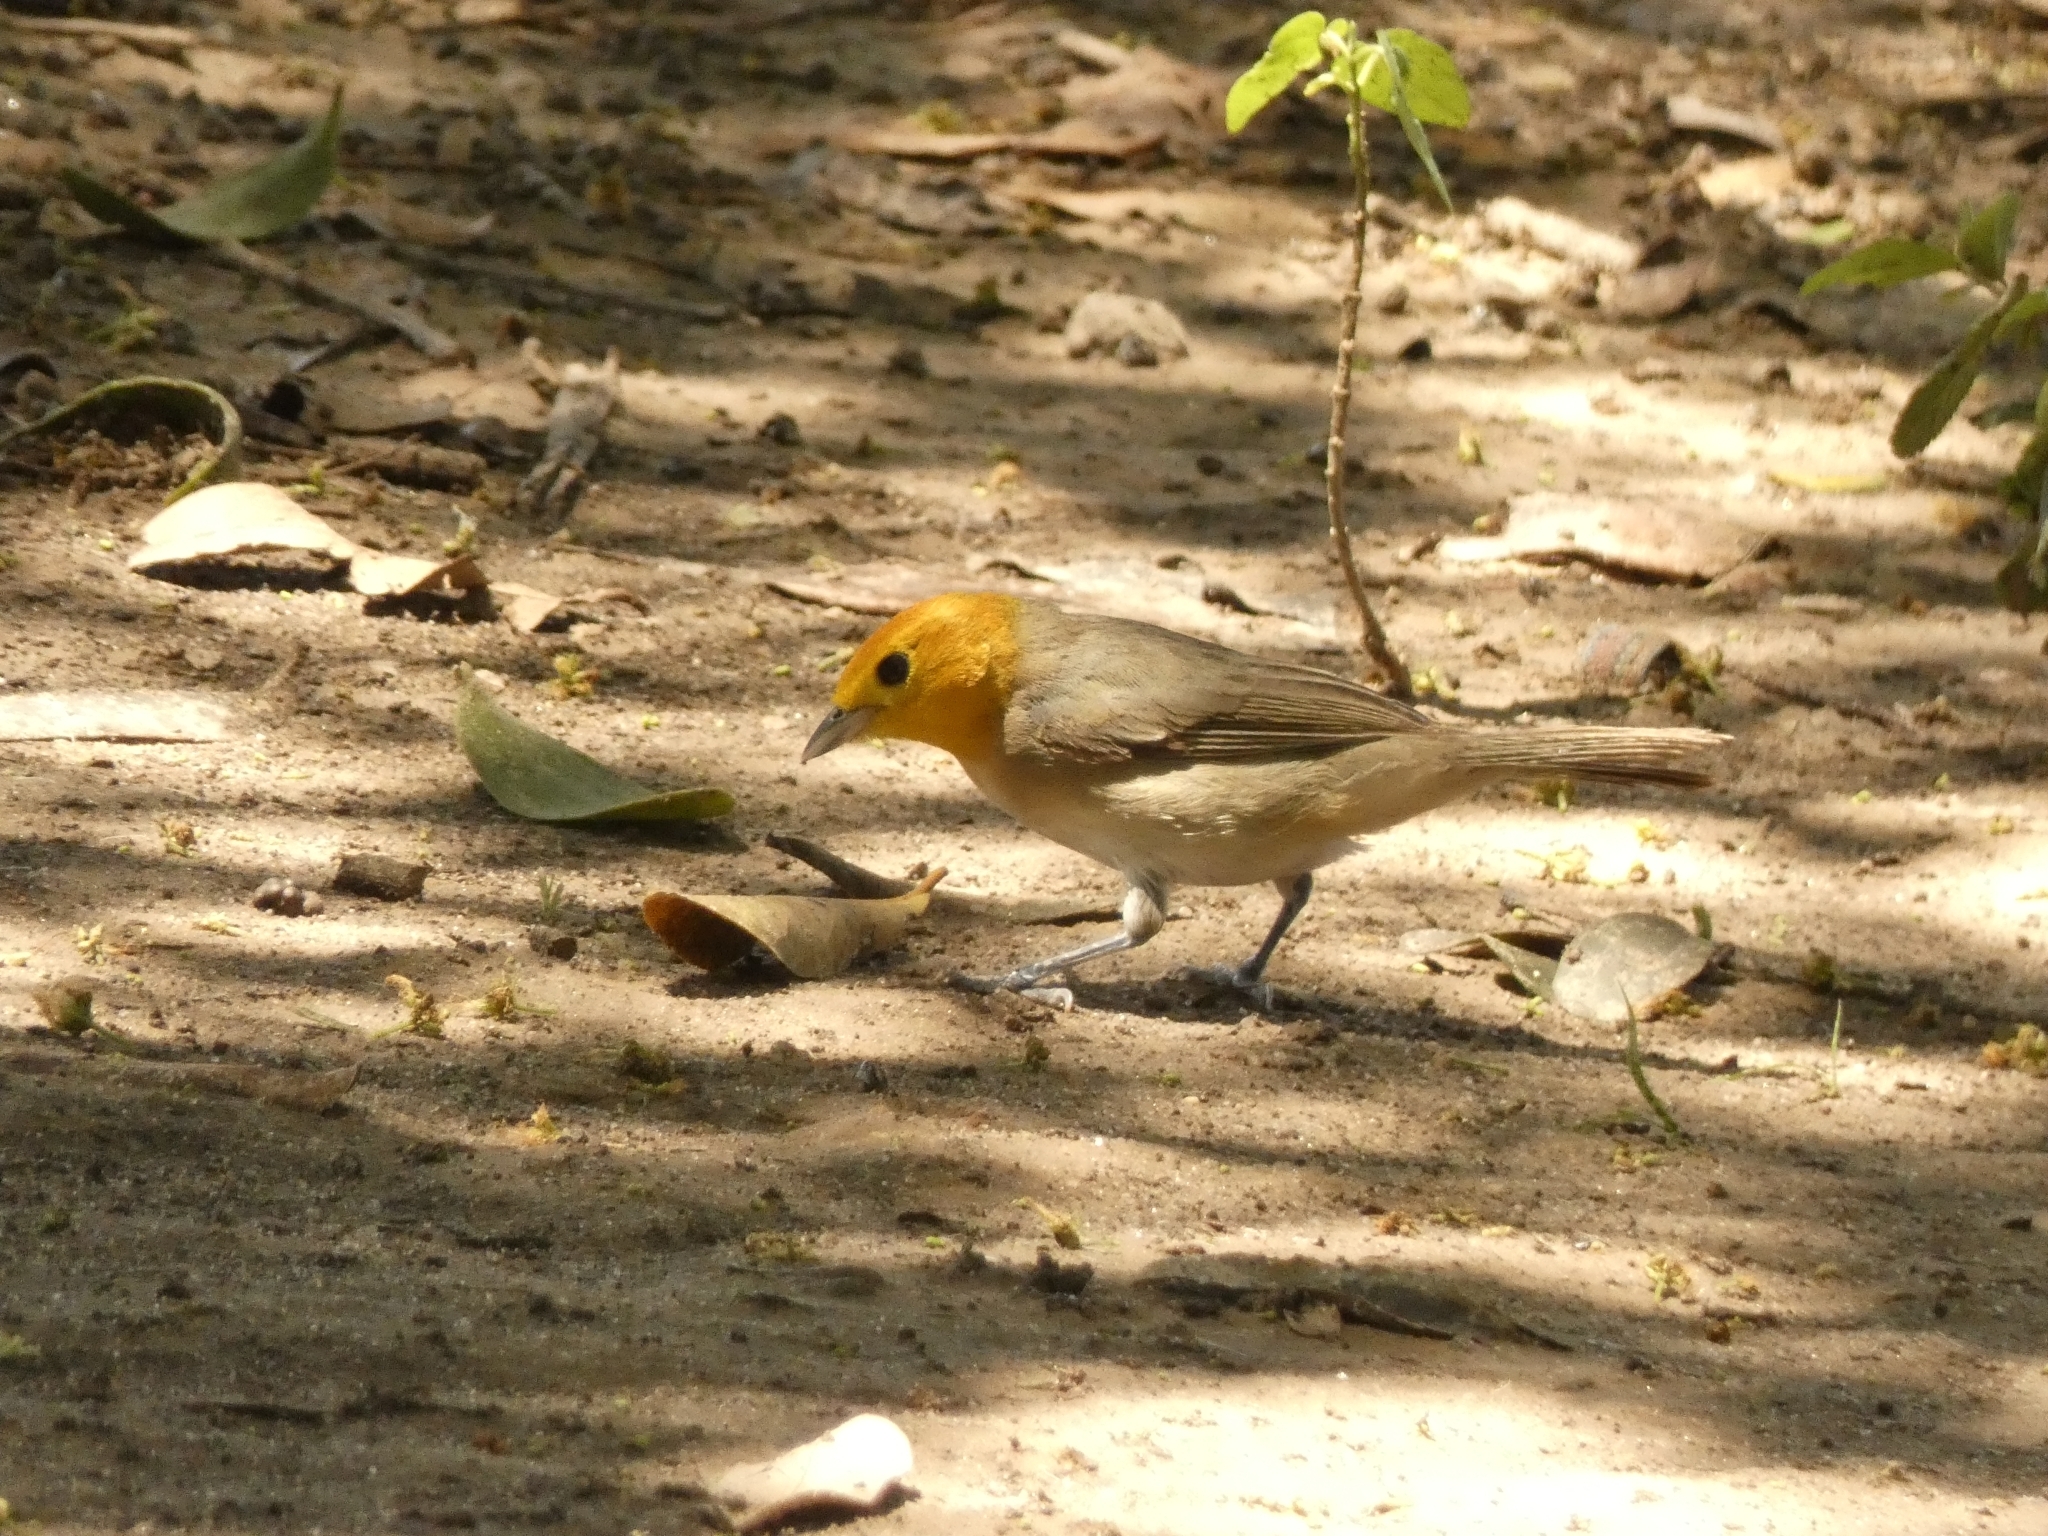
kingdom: Animalia
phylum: Chordata
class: Aves
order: Passeriformes
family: Thraupidae
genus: Thlypopsis
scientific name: Thlypopsis sordida
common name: Orange-headed tanager
